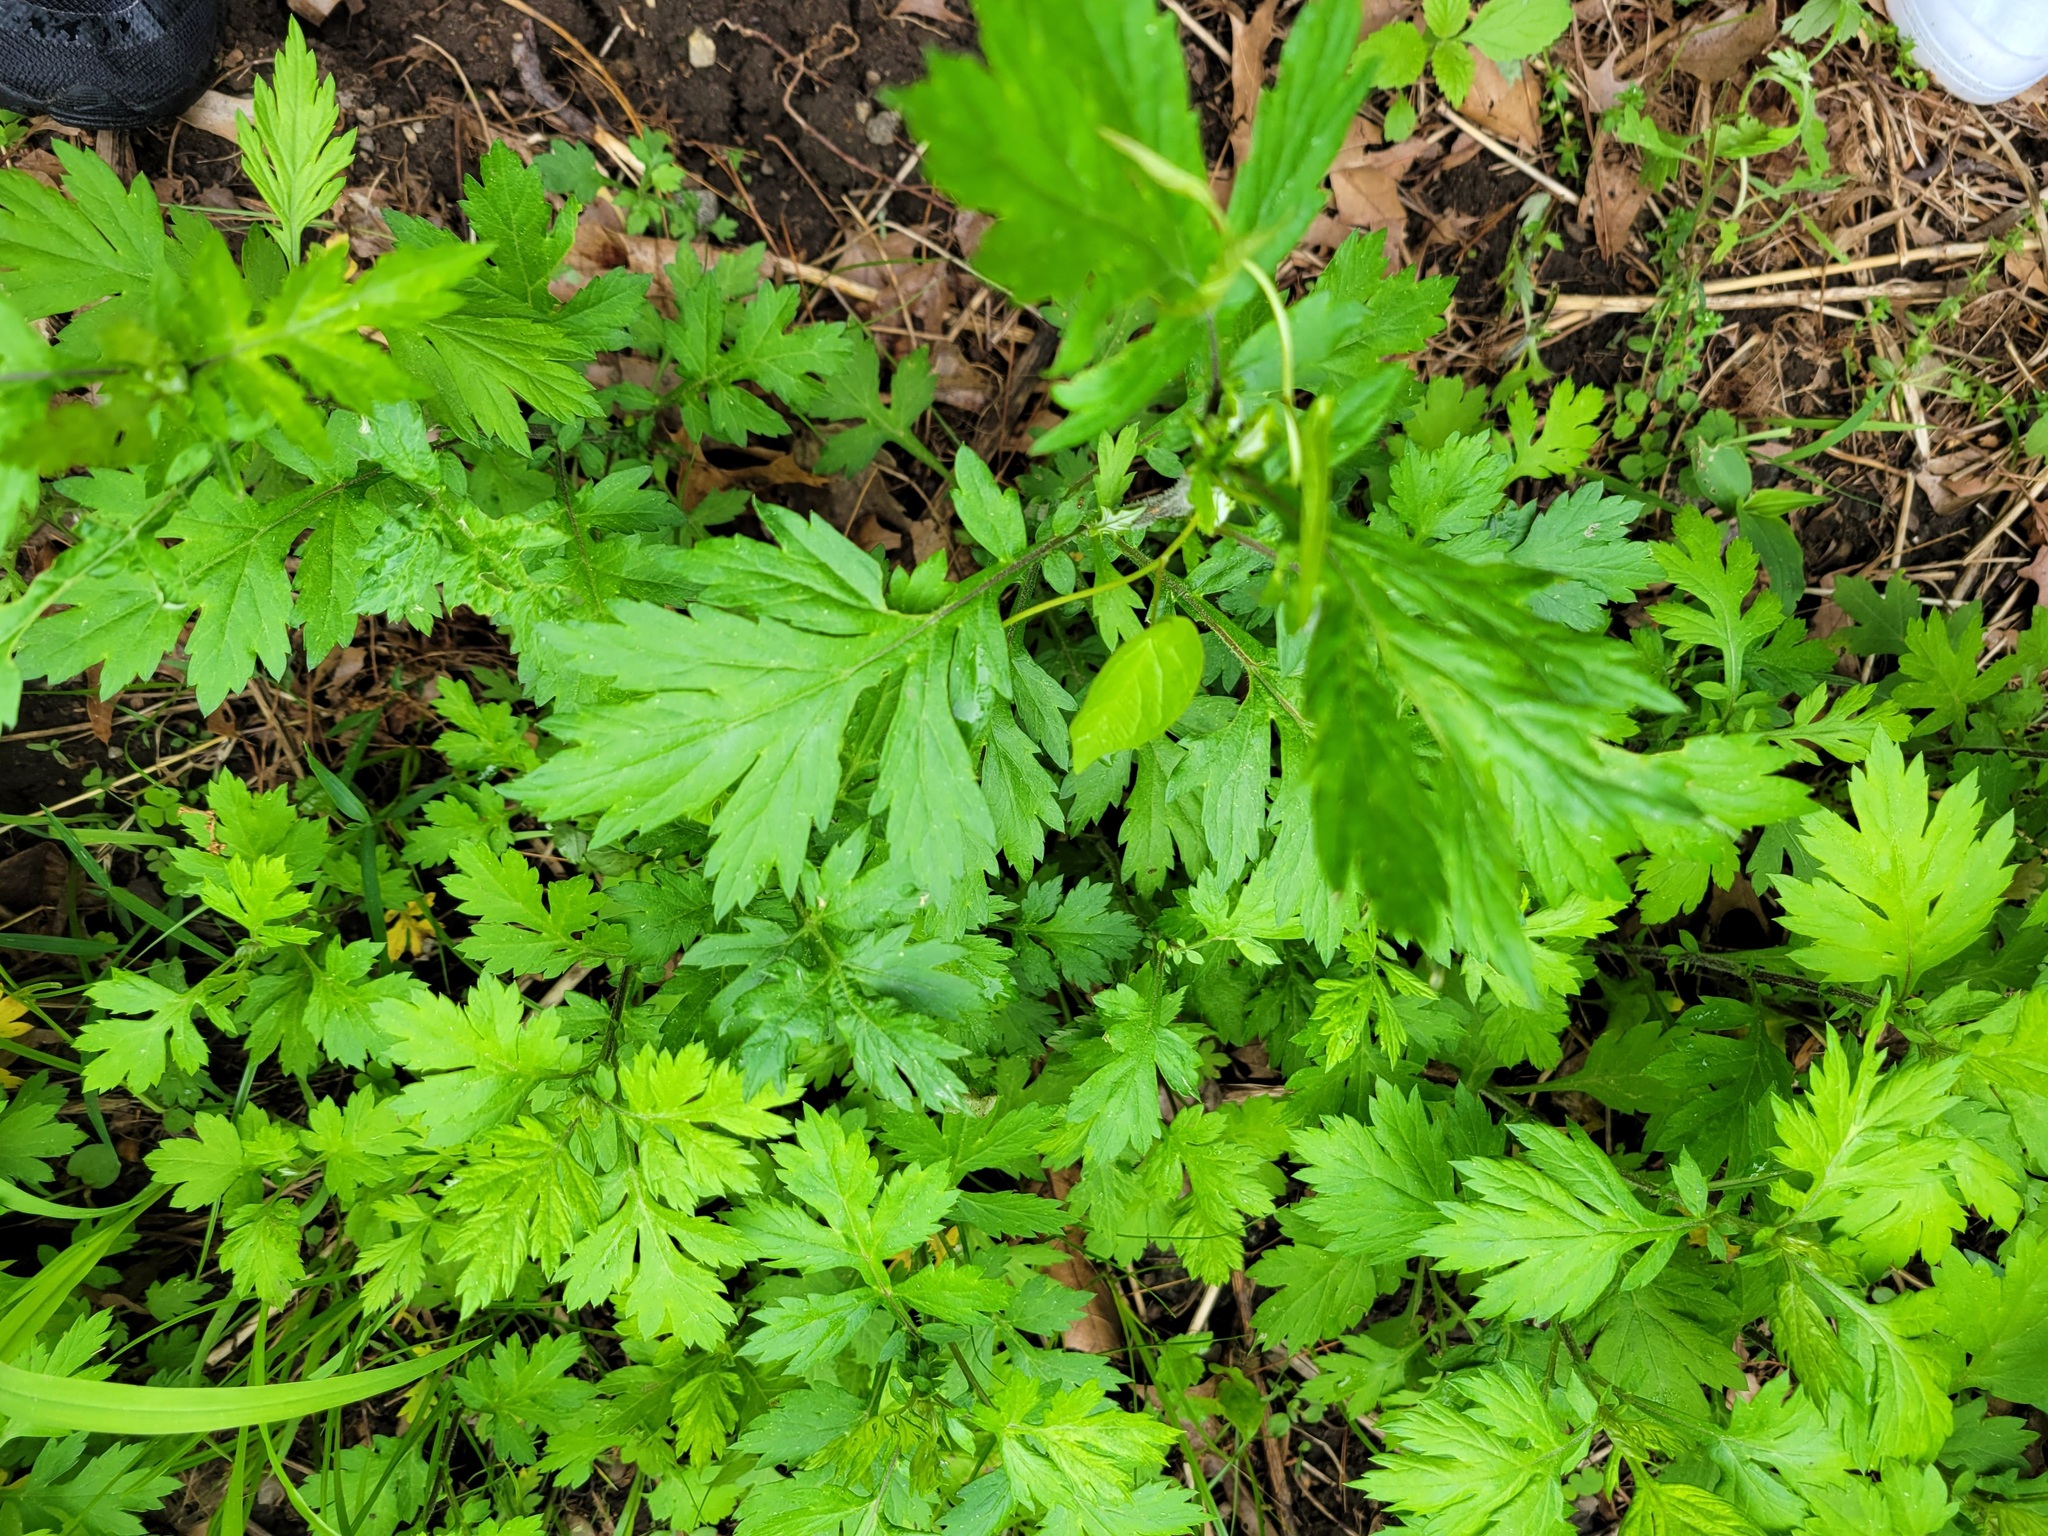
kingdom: Plantae
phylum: Tracheophyta
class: Magnoliopsida
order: Asterales
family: Asteraceae
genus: Artemisia
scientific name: Artemisia vulgaris
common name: Mugwort
